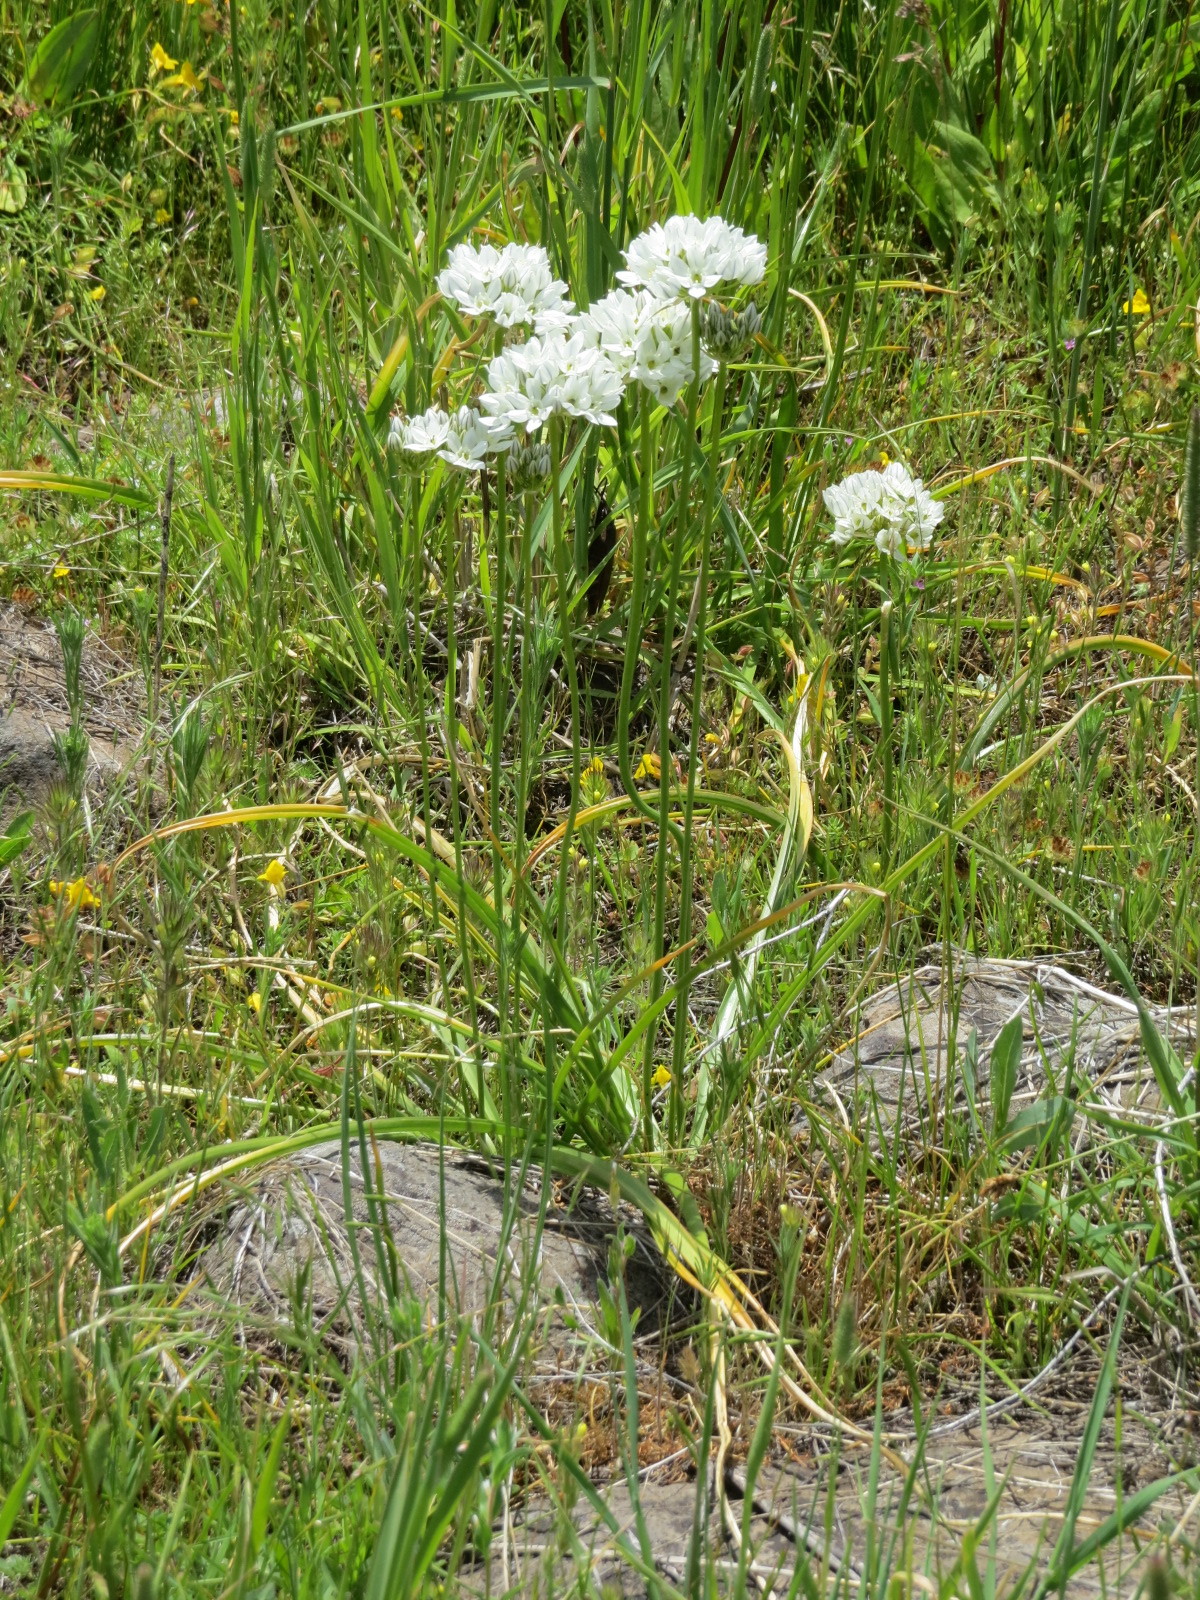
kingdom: Plantae
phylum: Tracheophyta
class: Liliopsida
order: Asparagales
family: Asparagaceae
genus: Triteleia
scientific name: Triteleia hyacinthina
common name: White brodiaea
